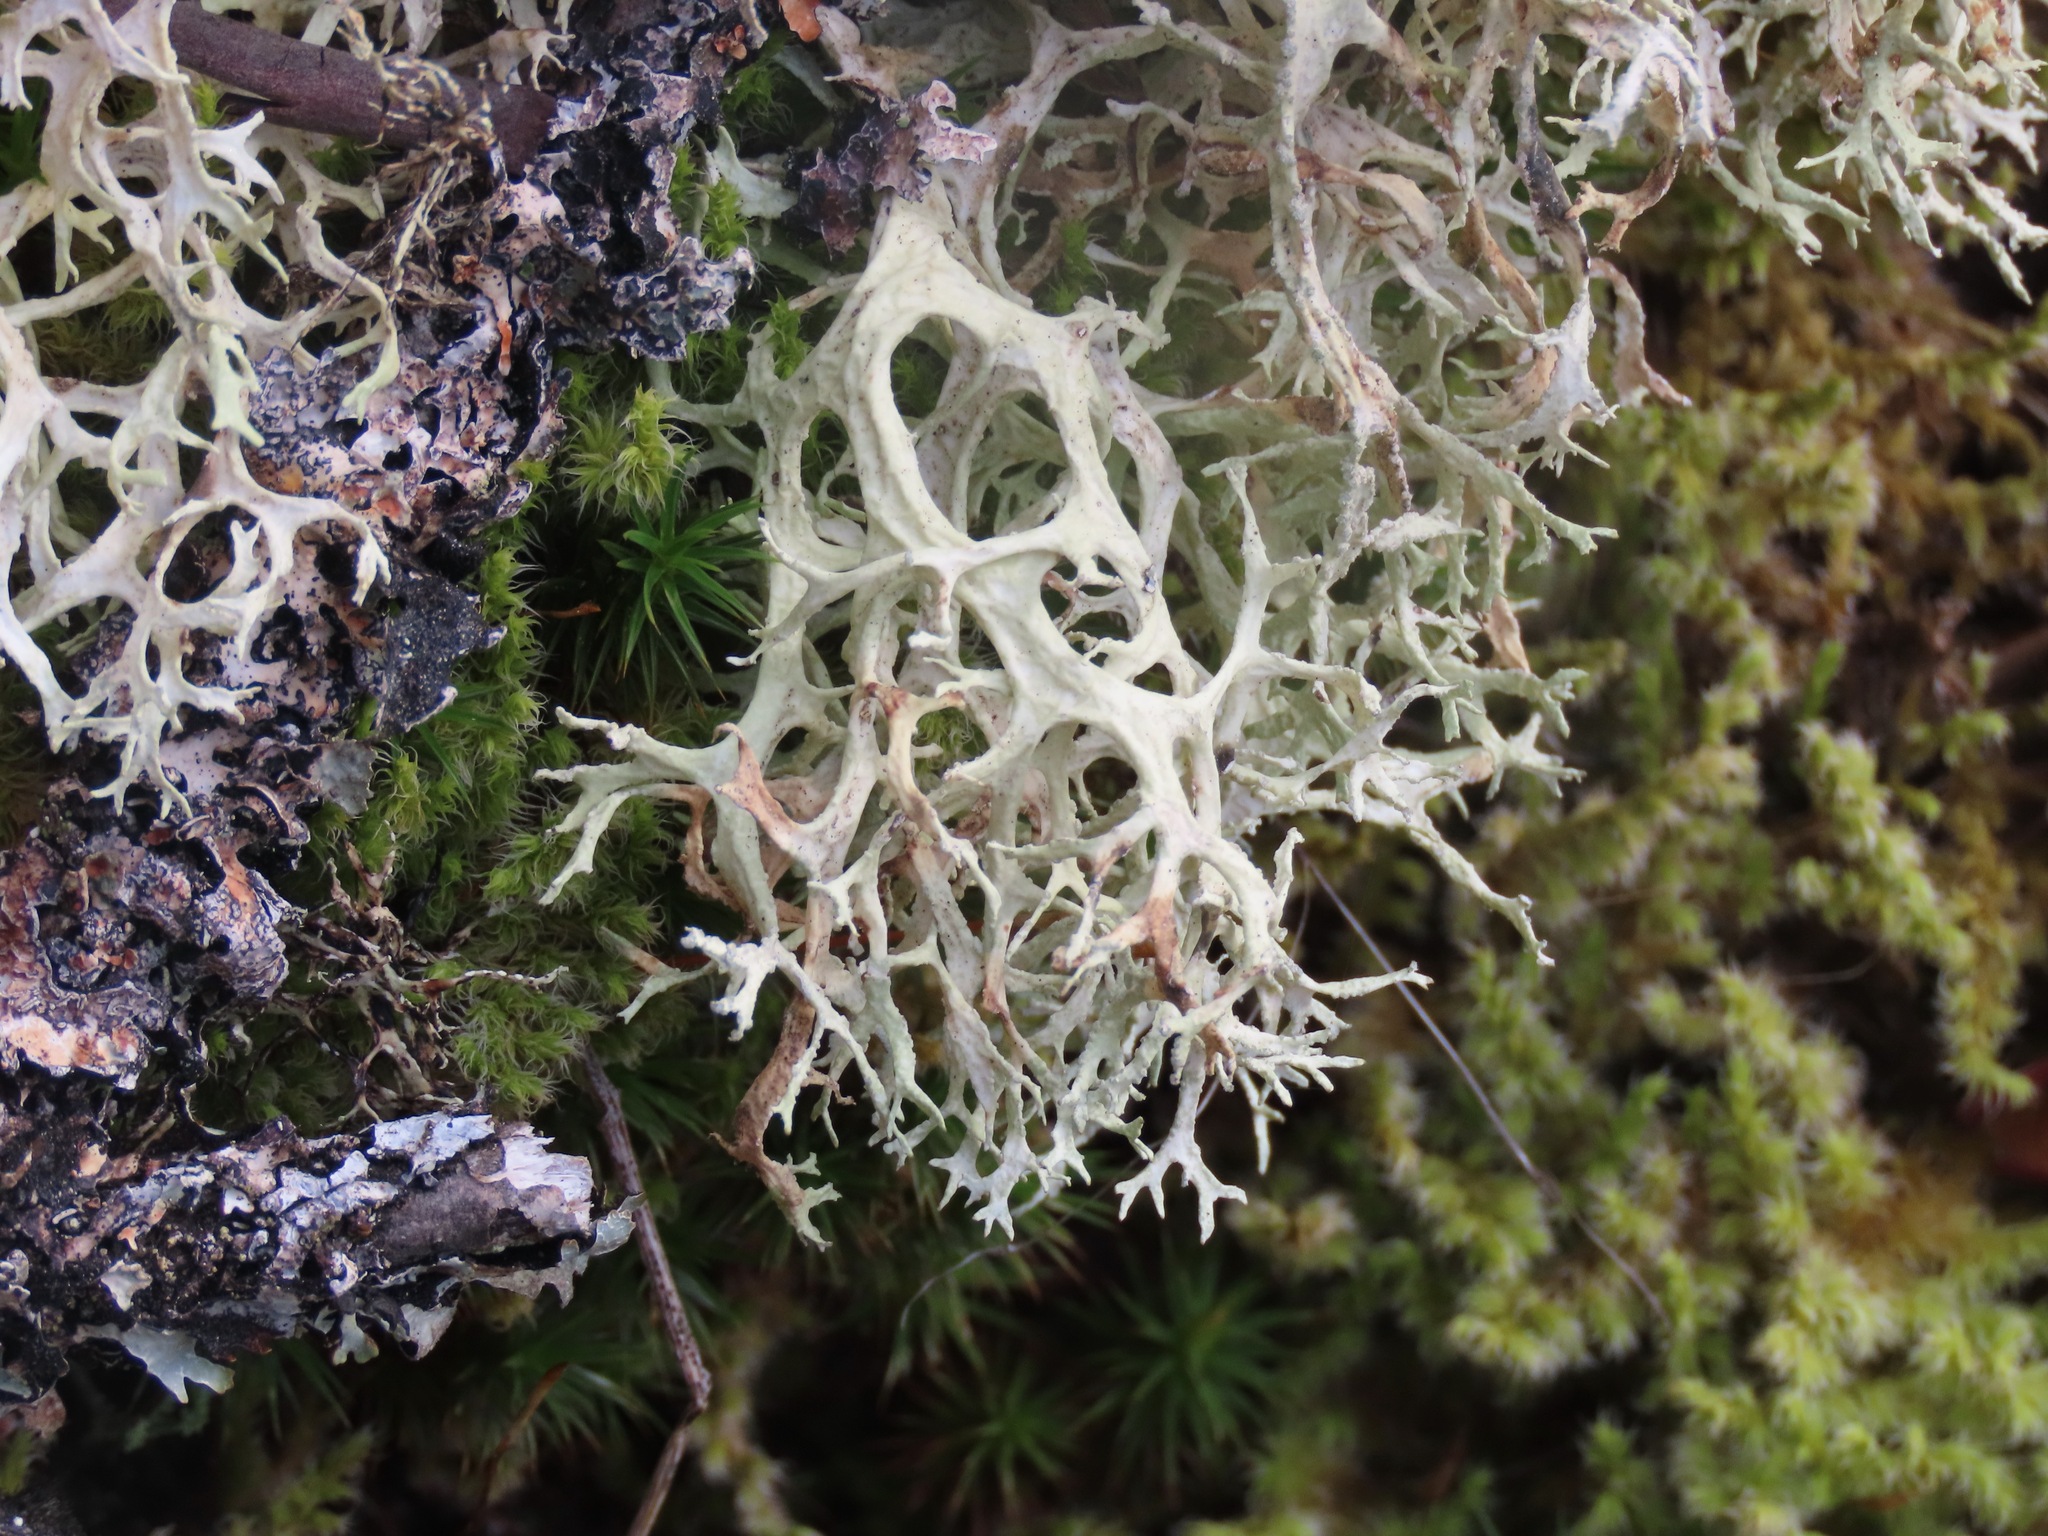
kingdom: Fungi
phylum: Ascomycota
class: Lecanoromycetes
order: Lecanorales
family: Parmeliaceae
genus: Evernia
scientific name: Evernia prunastri
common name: Oak moss
